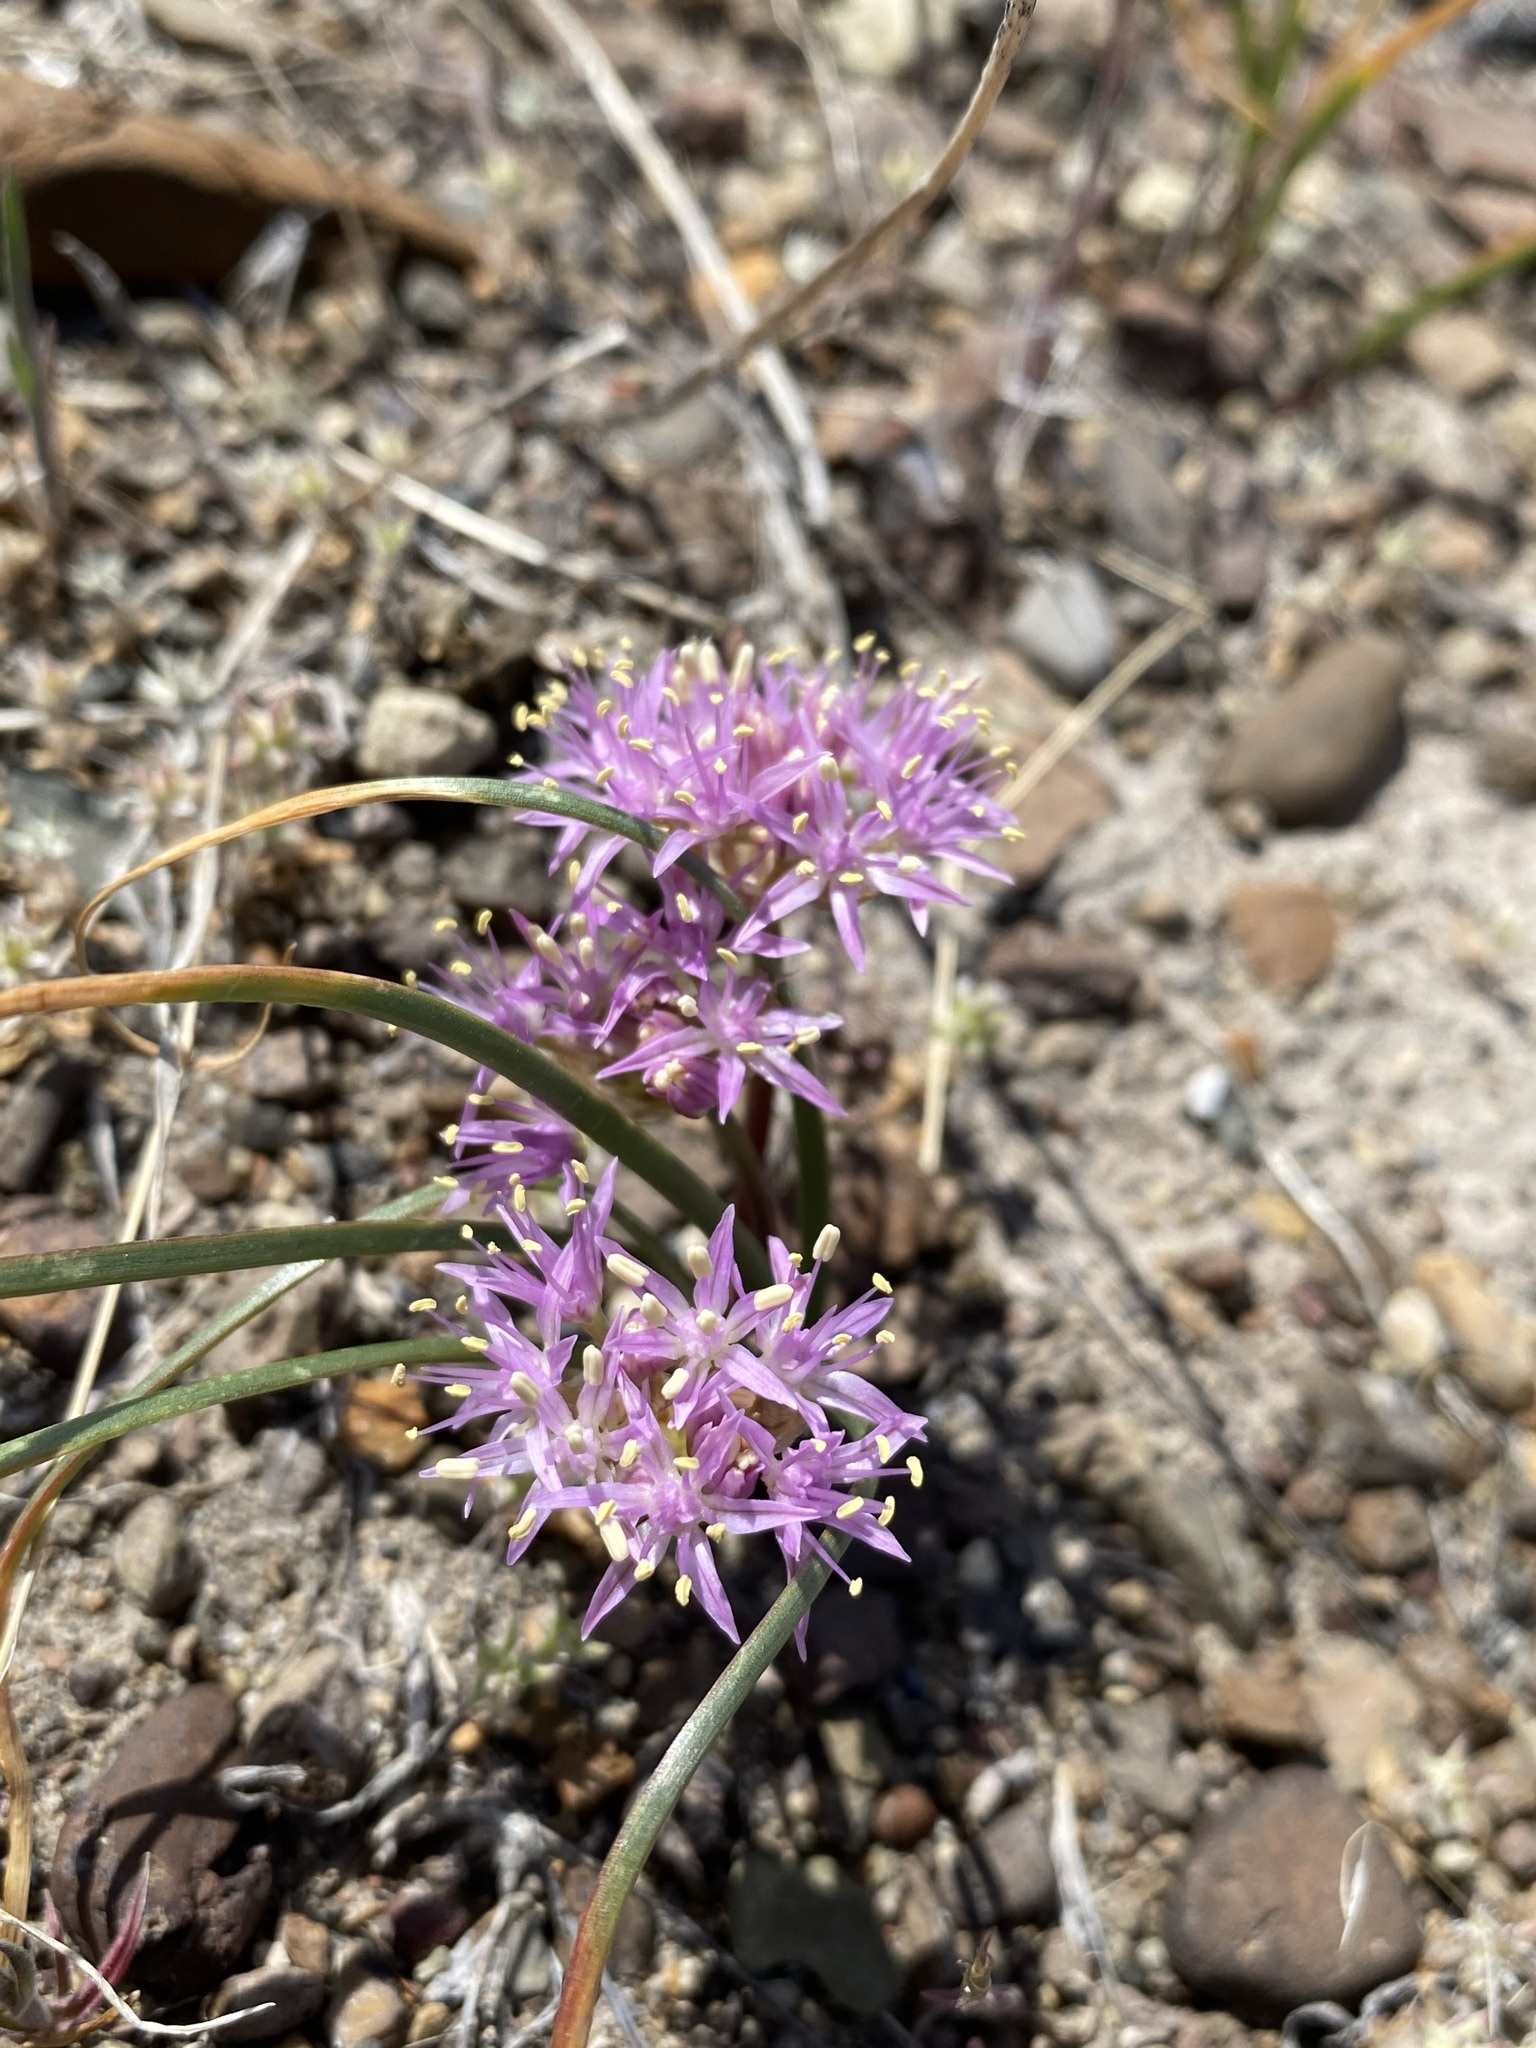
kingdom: Plantae
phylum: Tracheophyta
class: Liliopsida
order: Asparagales
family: Amaryllidaceae
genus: Allium
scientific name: Allium anceps
